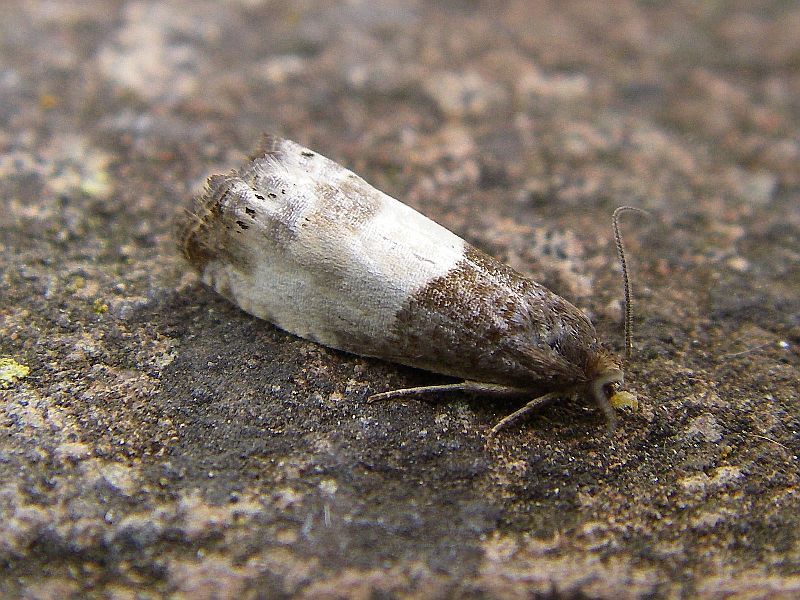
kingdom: Animalia
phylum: Arthropoda
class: Insecta
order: Lepidoptera
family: Tortricidae
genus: Notocelia
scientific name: Notocelia cynosbatella
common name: Yellow-faced bell moth
